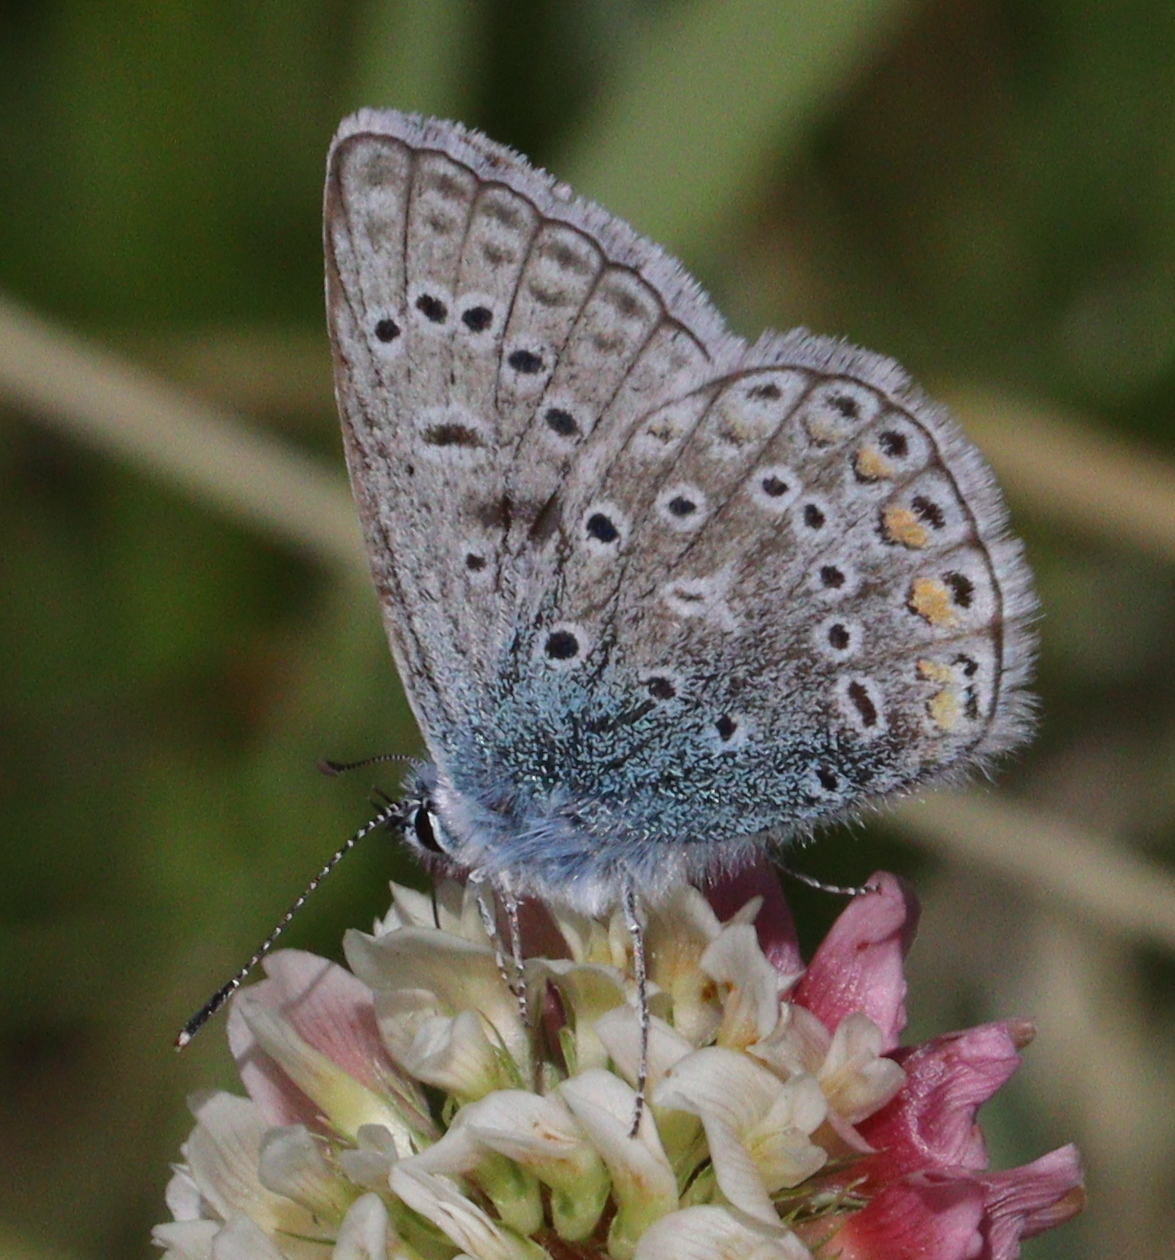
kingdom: Animalia
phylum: Arthropoda
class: Insecta
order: Lepidoptera
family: Lycaenidae
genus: Polyommatus
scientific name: Polyommatus icarus
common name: Common blue
